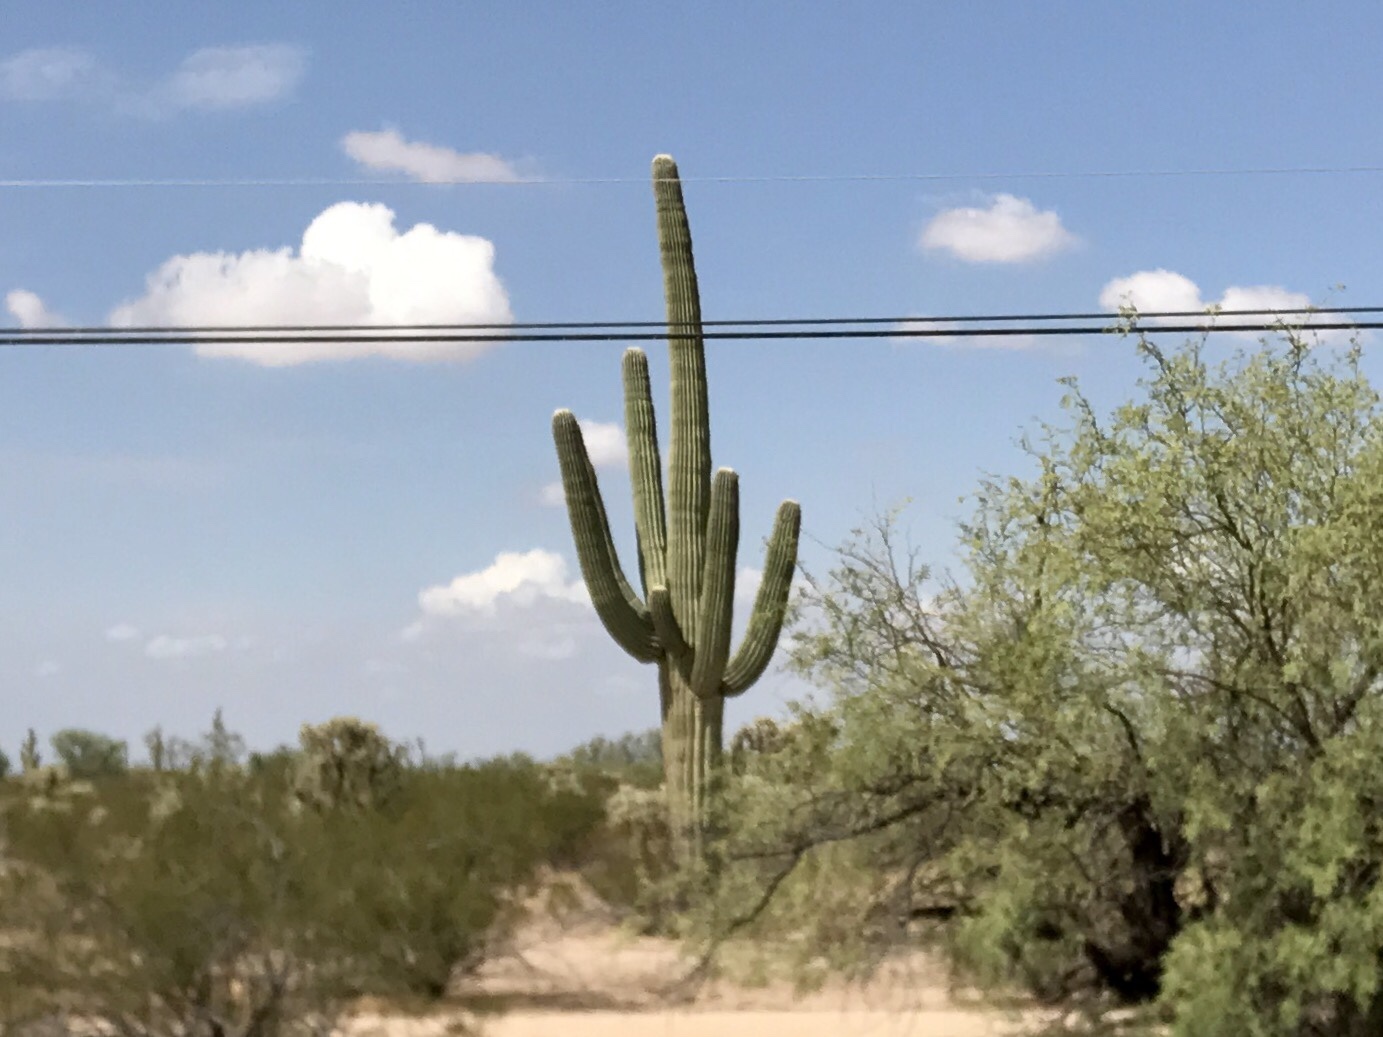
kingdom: Plantae
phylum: Tracheophyta
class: Magnoliopsida
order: Caryophyllales
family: Cactaceae
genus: Carnegiea
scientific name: Carnegiea gigantea
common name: Saguaro
